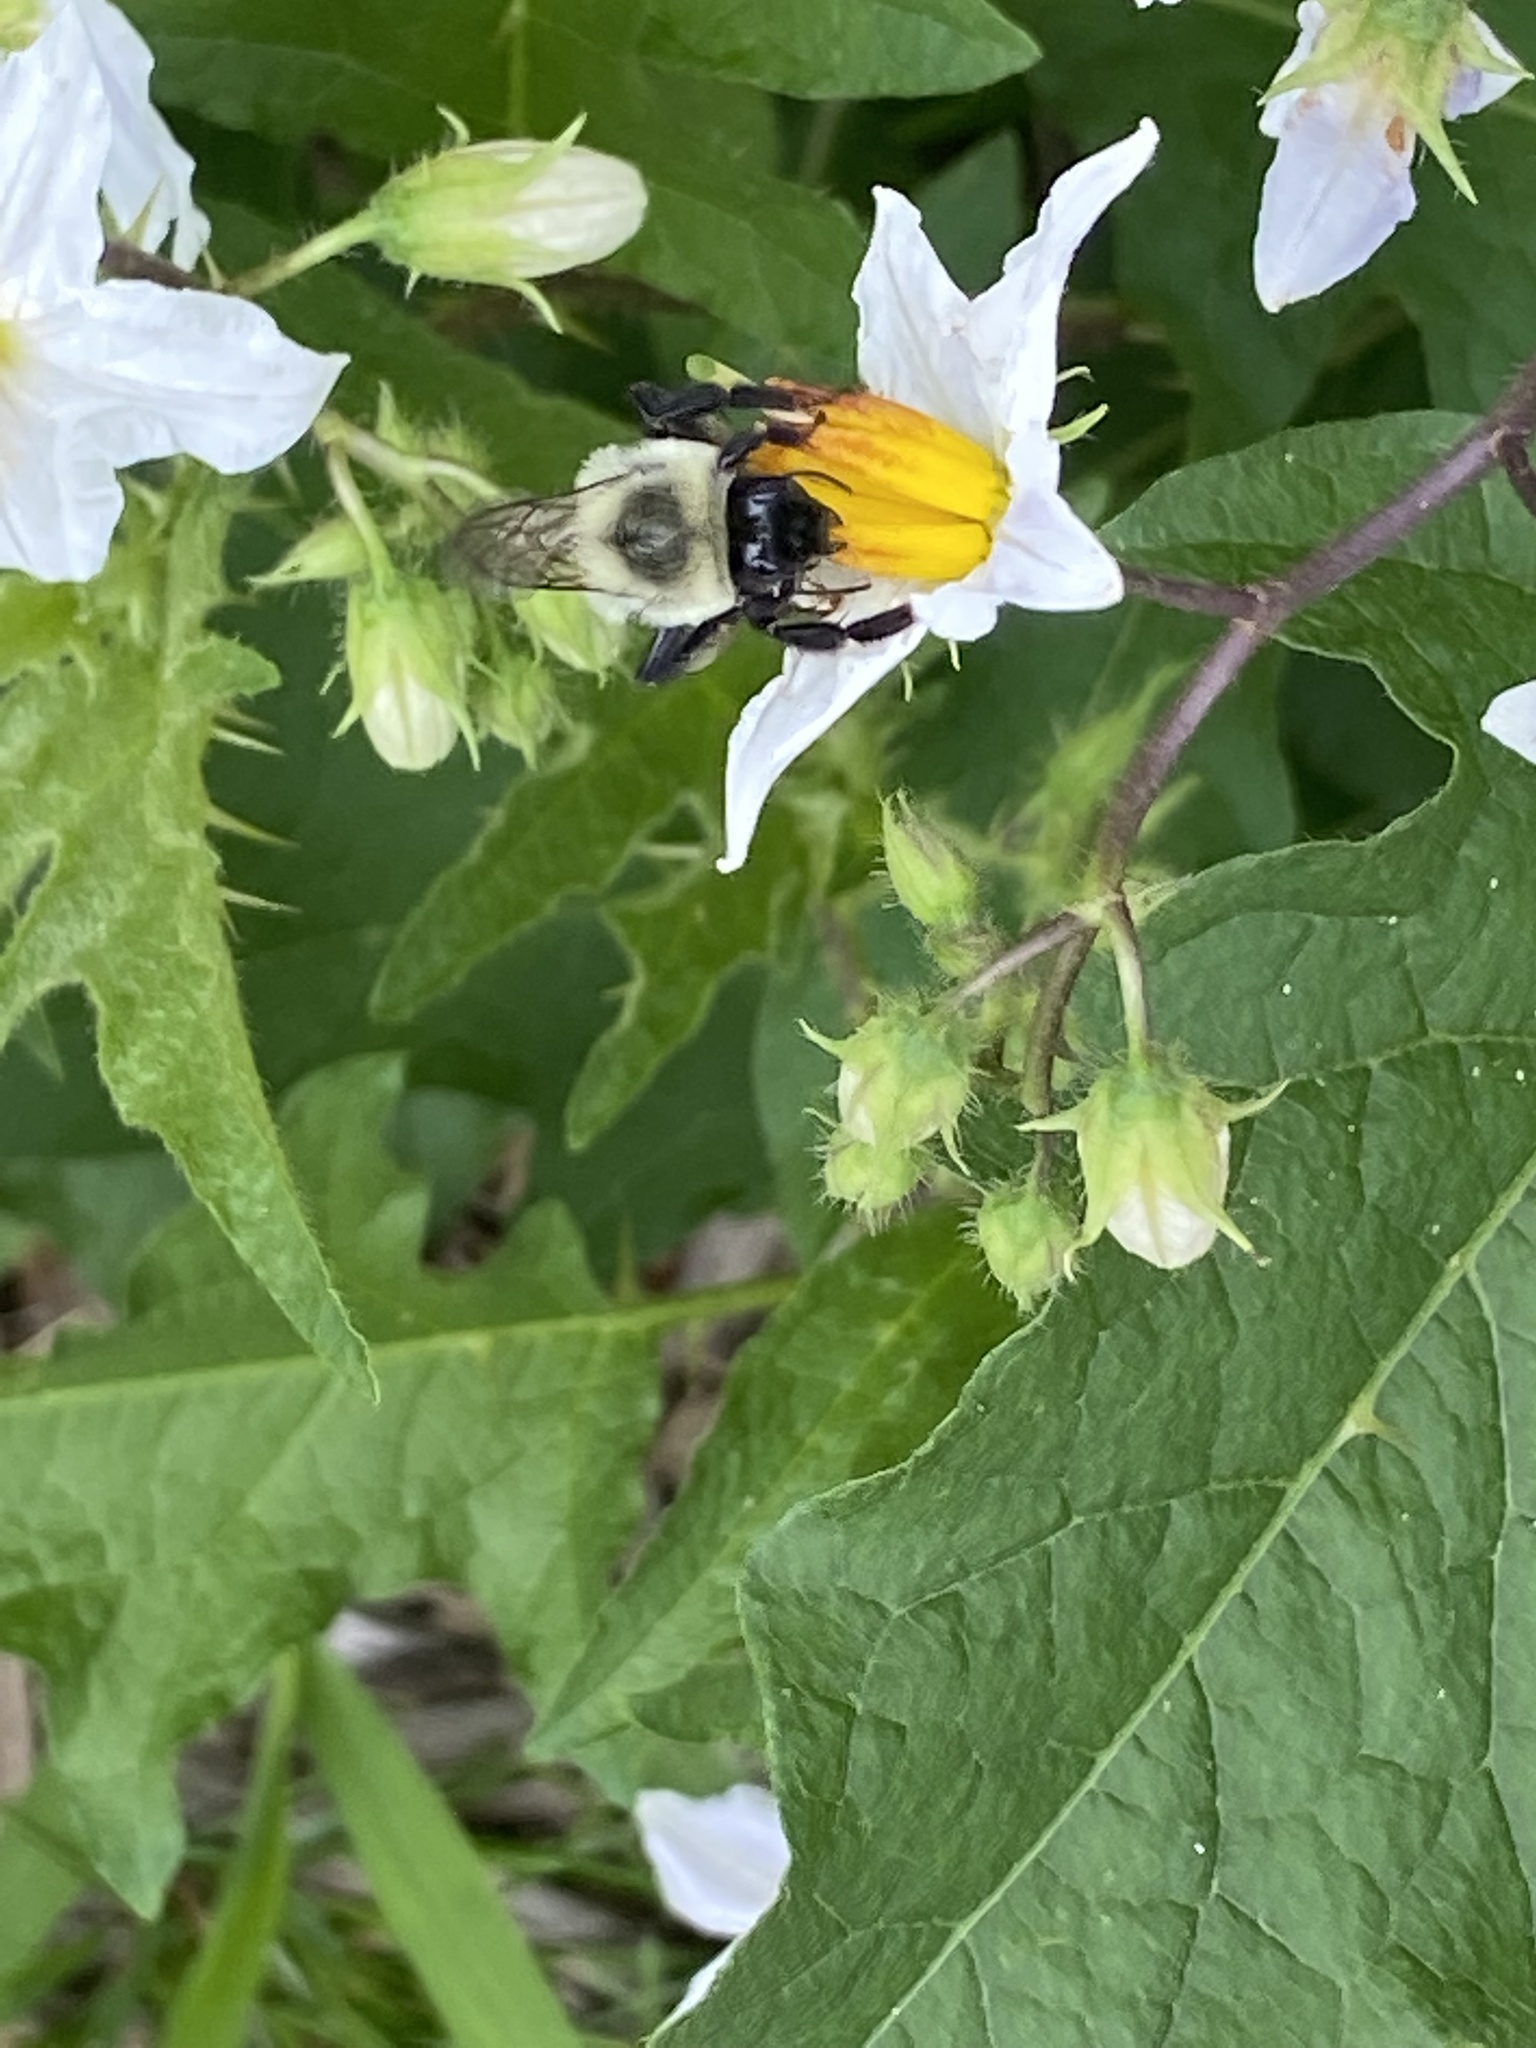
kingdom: Animalia
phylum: Arthropoda
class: Insecta
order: Hymenoptera
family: Apidae
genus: Bombus
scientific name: Bombus impatiens
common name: Common eastern bumble bee
